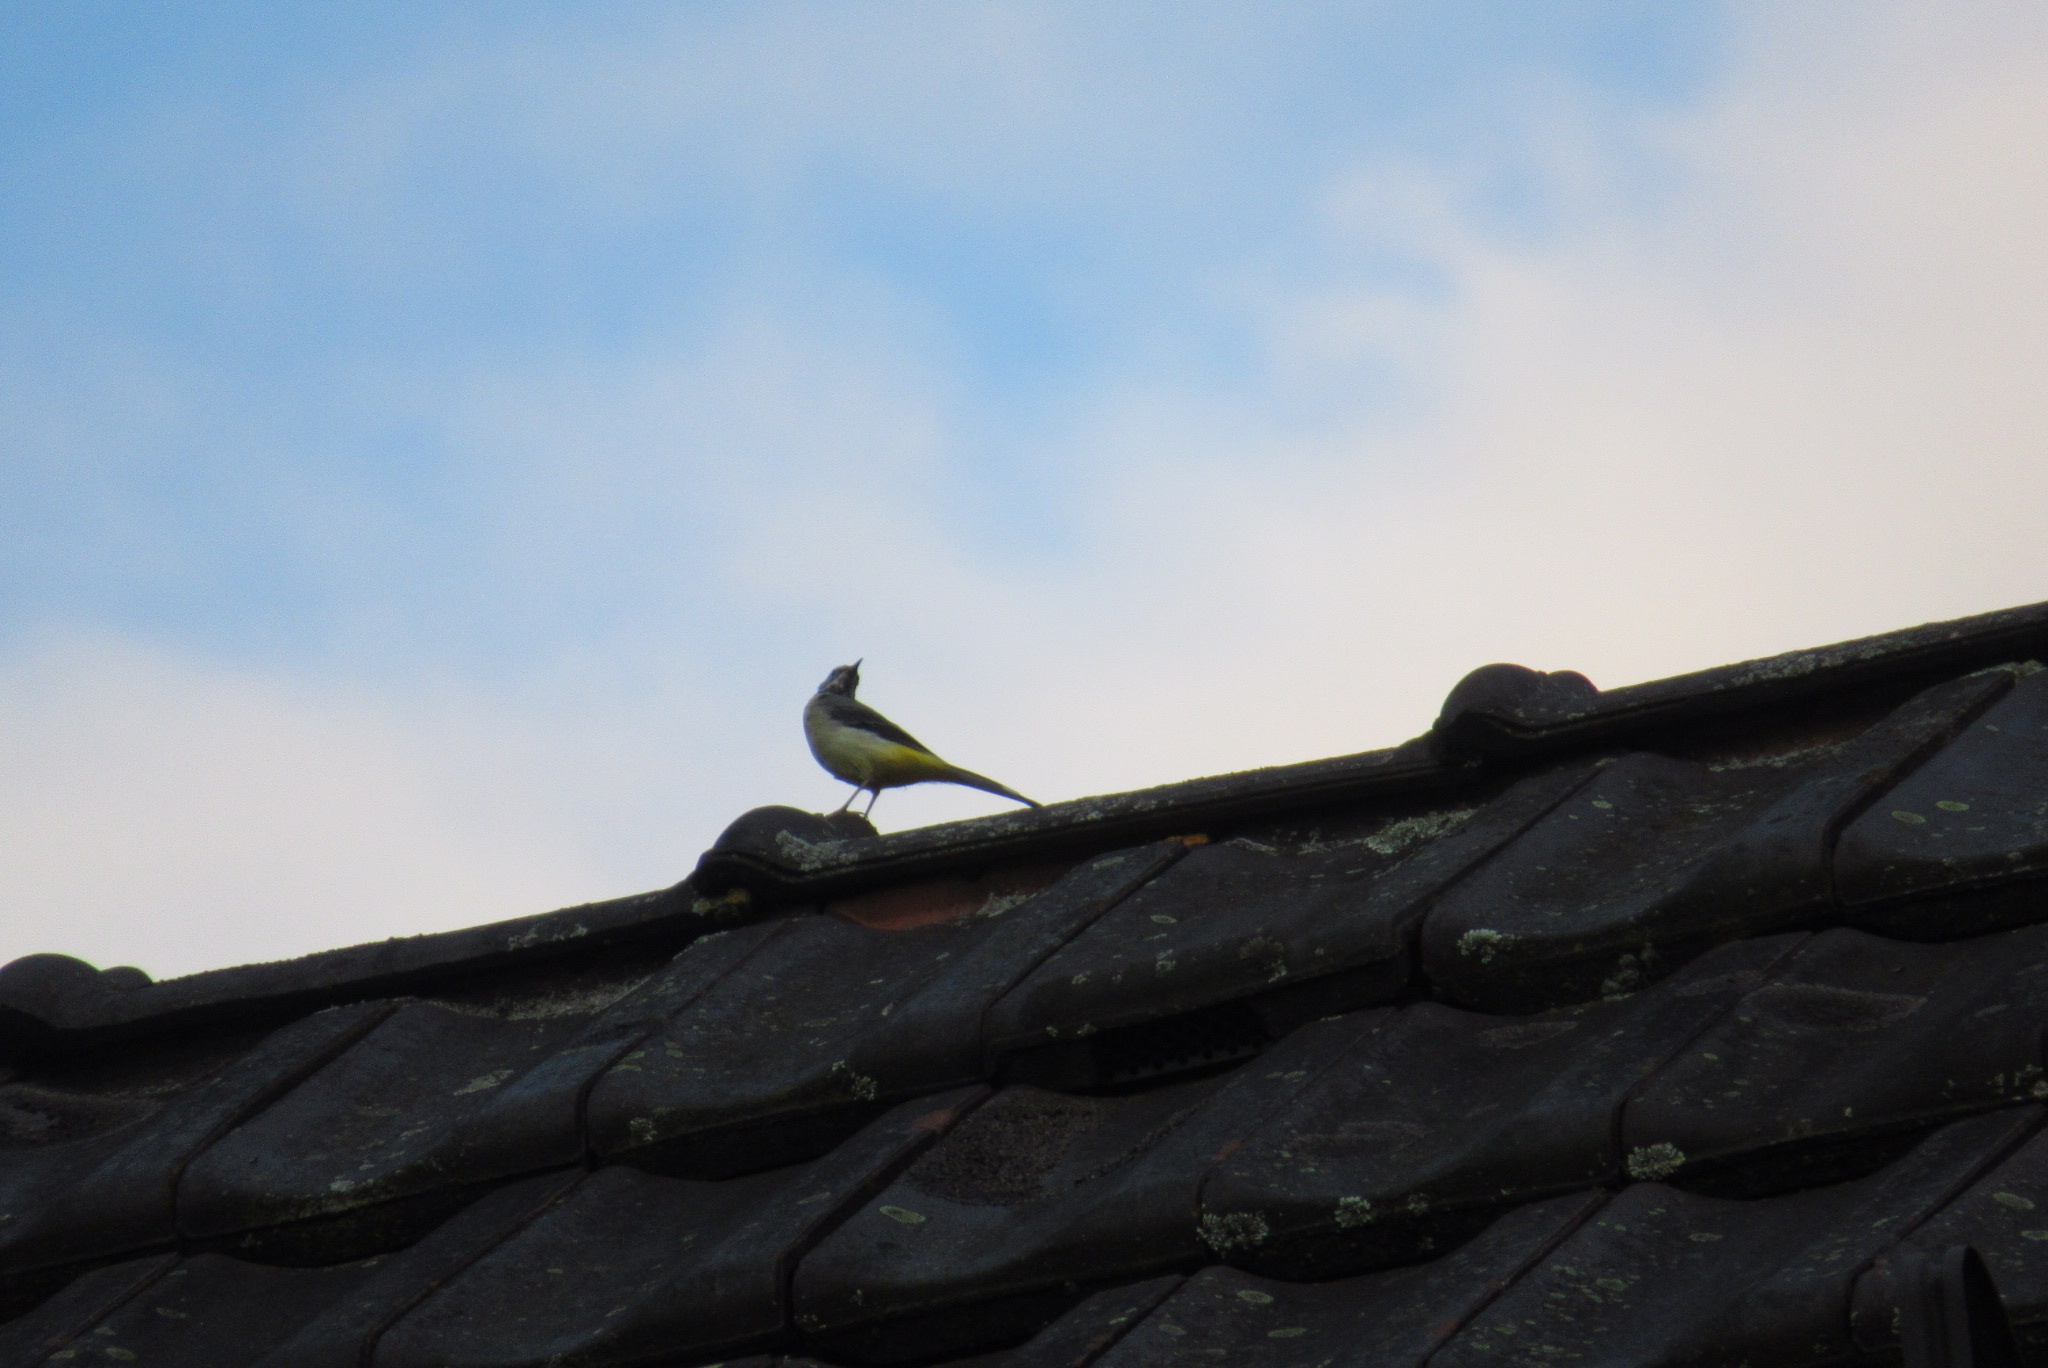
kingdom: Animalia
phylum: Chordata
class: Aves
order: Passeriformes
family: Motacillidae
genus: Motacilla
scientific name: Motacilla cinerea
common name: Grey wagtail
